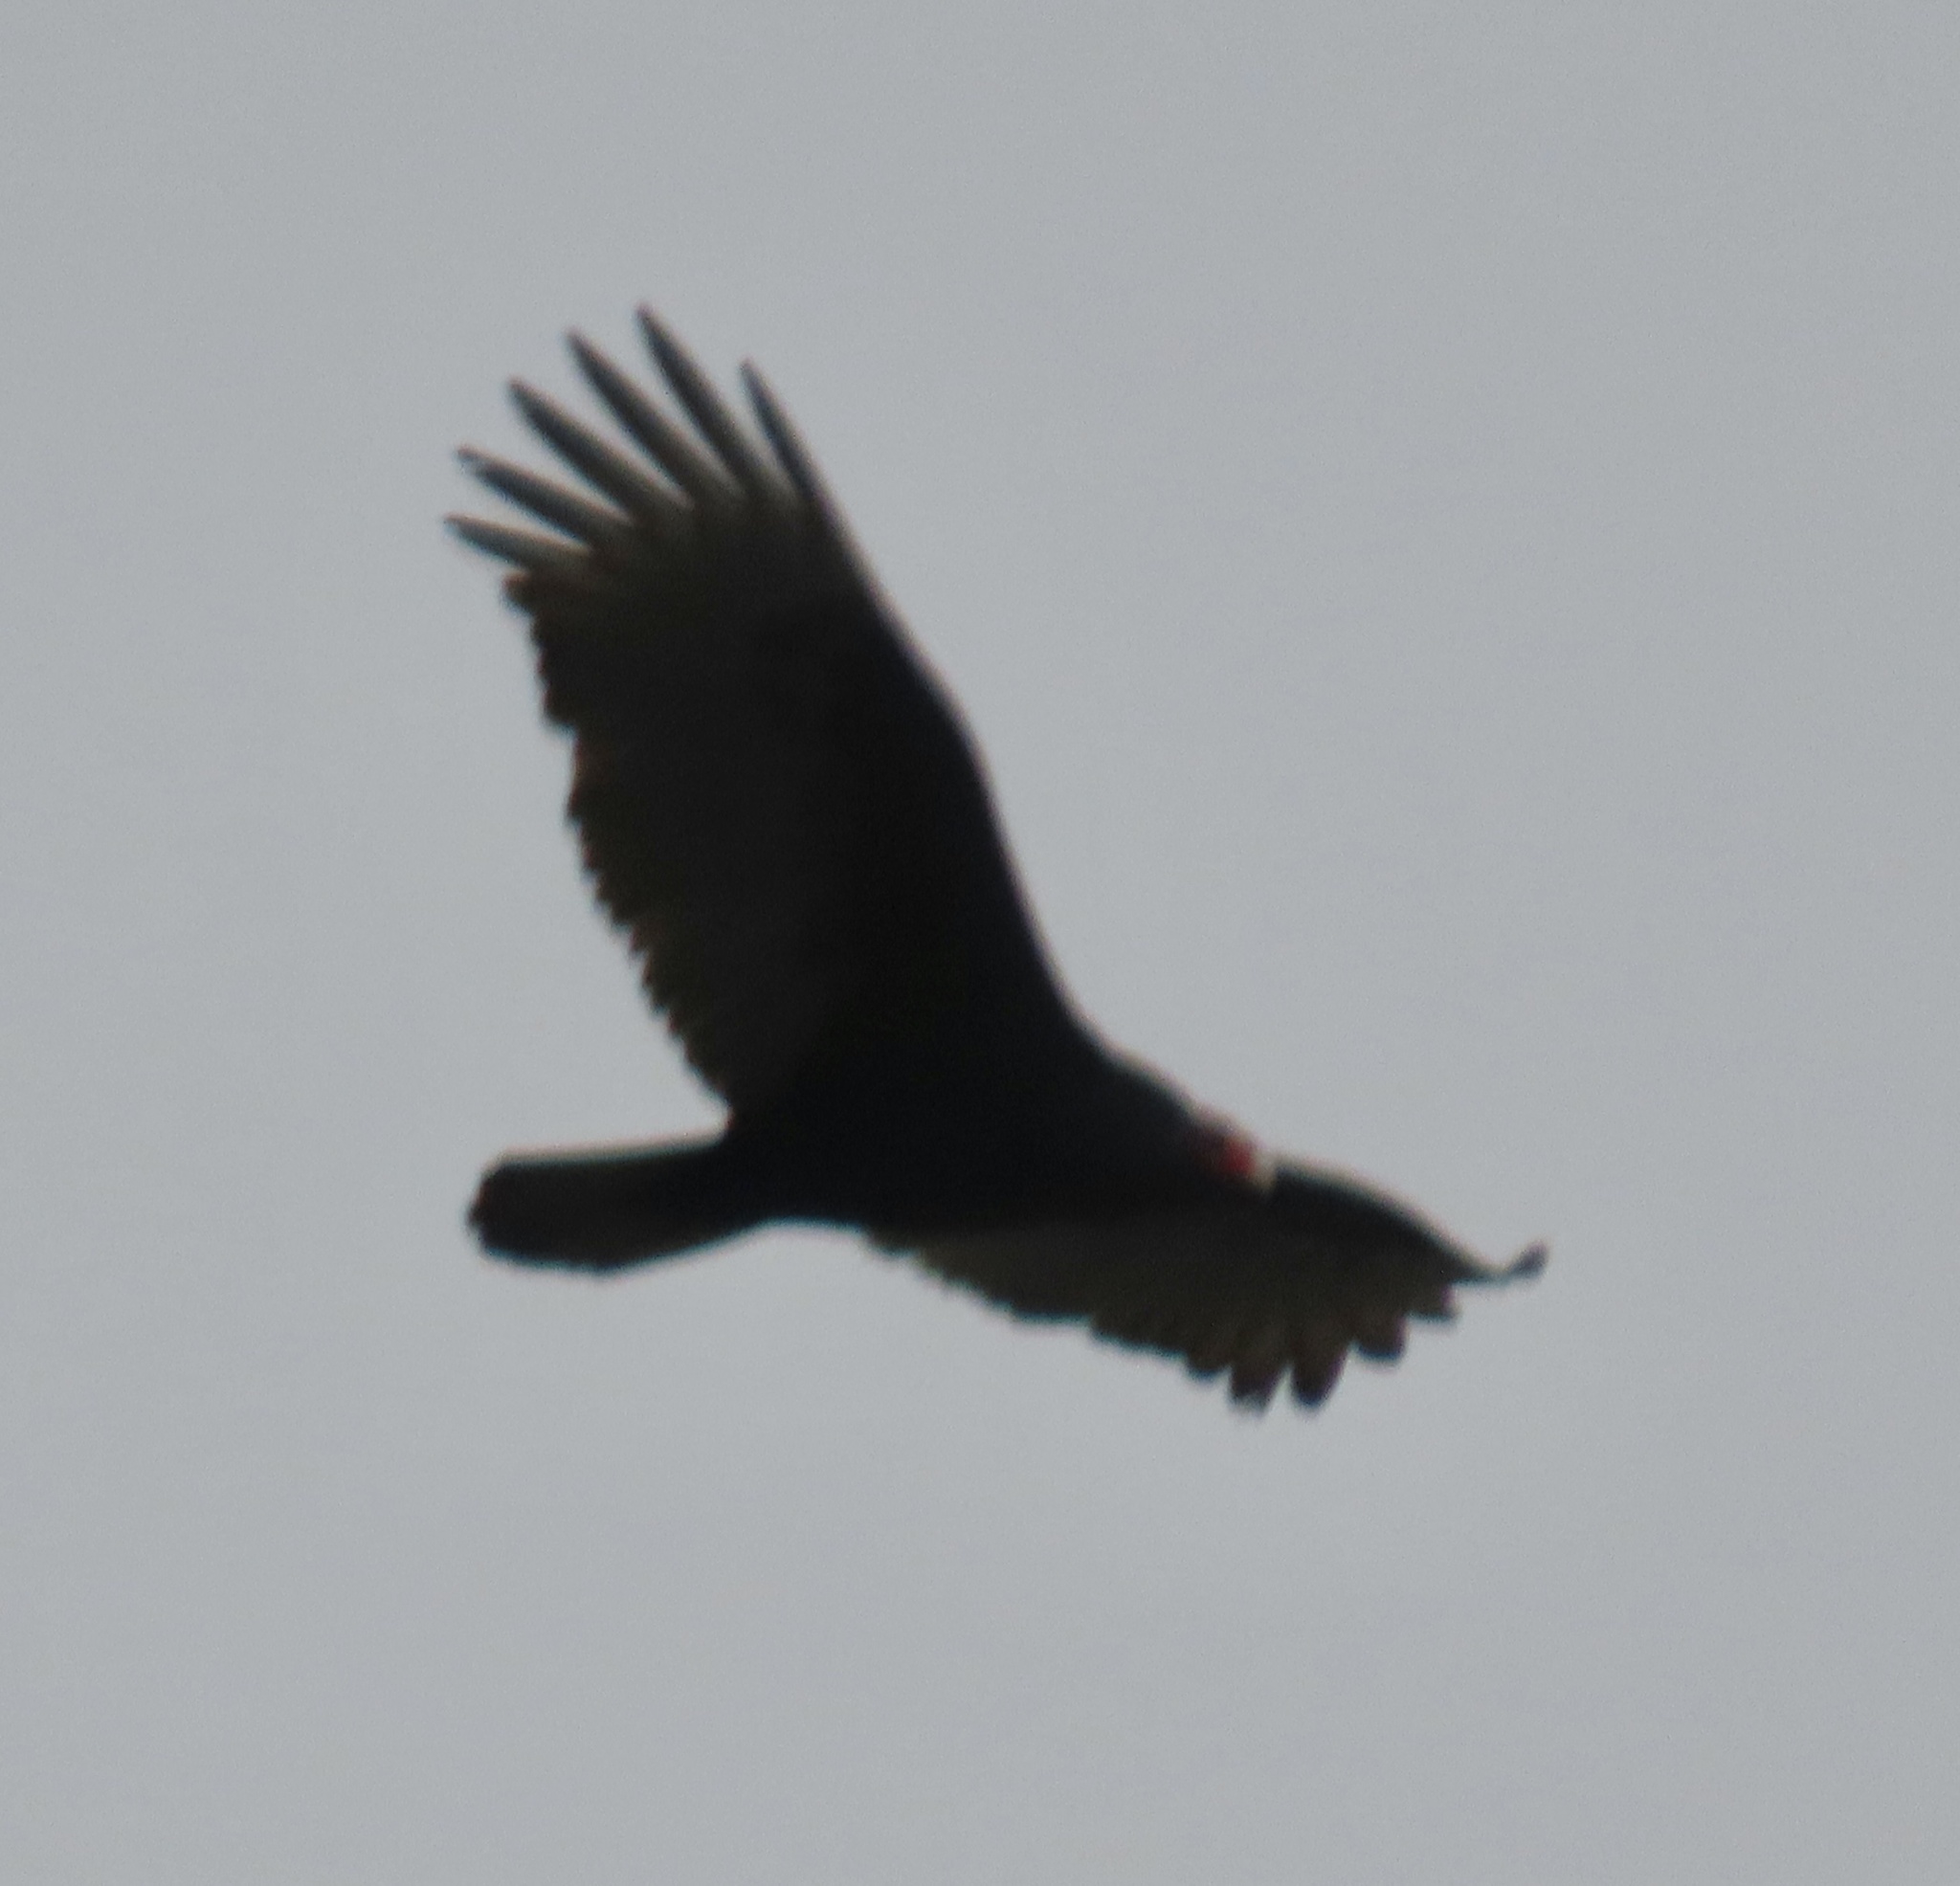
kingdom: Animalia
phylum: Chordata
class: Aves
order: Accipitriformes
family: Cathartidae
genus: Cathartes
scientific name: Cathartes aura
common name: Turkey vulture
